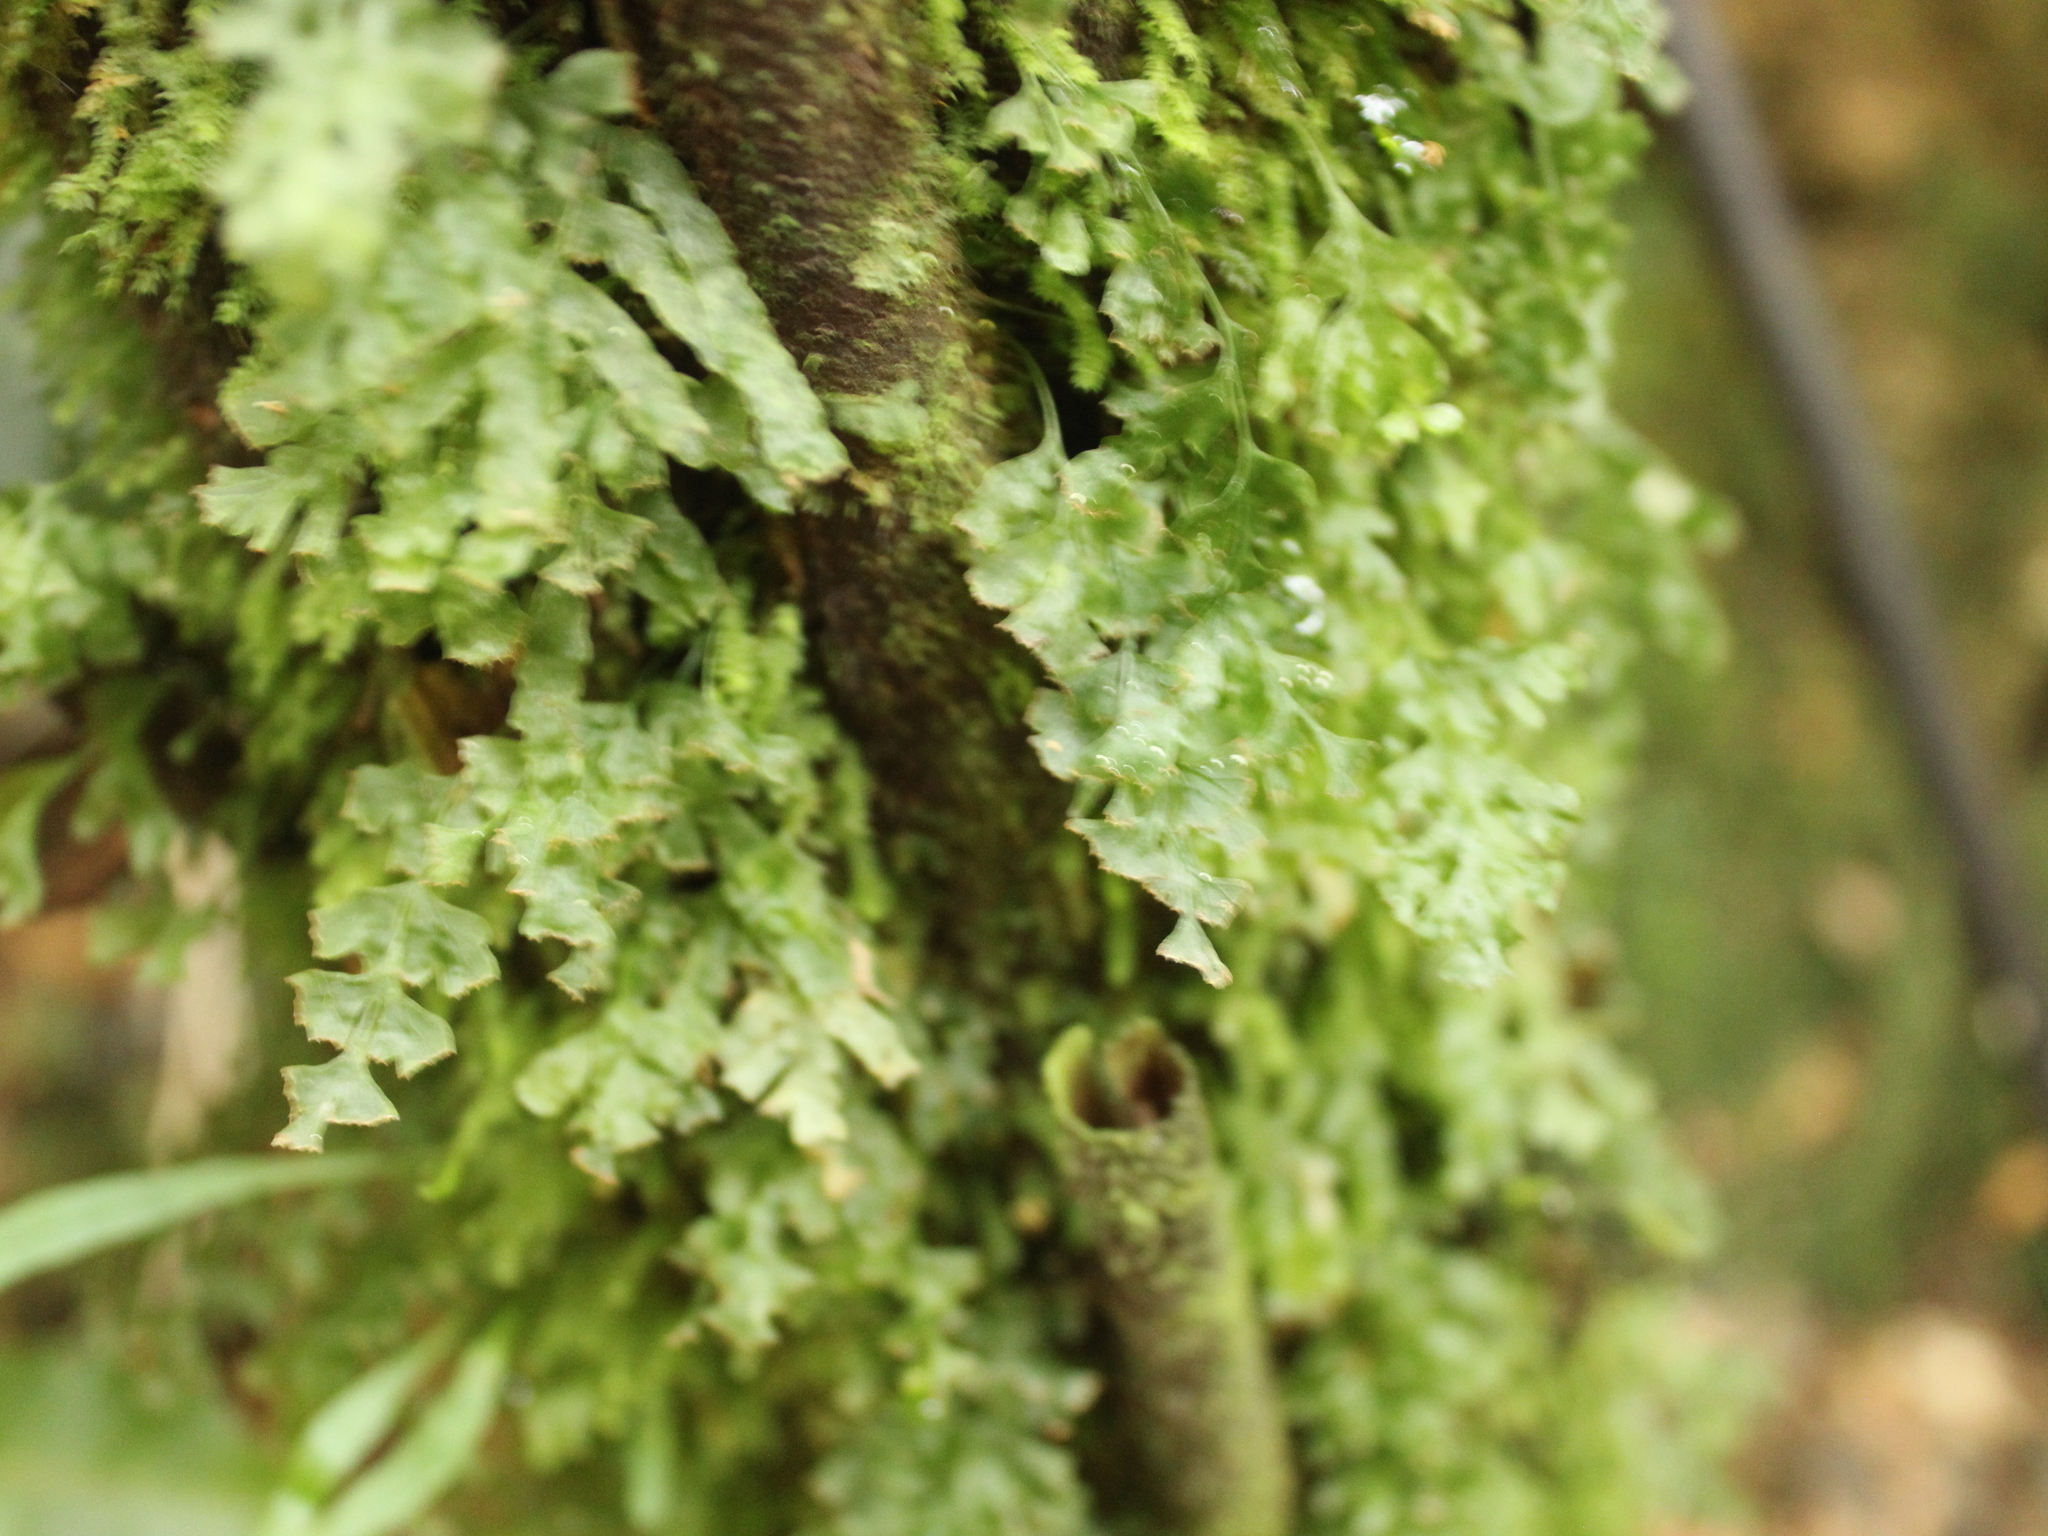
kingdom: Plantae
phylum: Tracheophyta
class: Polypodiopsida
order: Hymenophyllales
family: Hymenophyllaceae
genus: Polyphlebium
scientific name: Polyphlebium venosum
